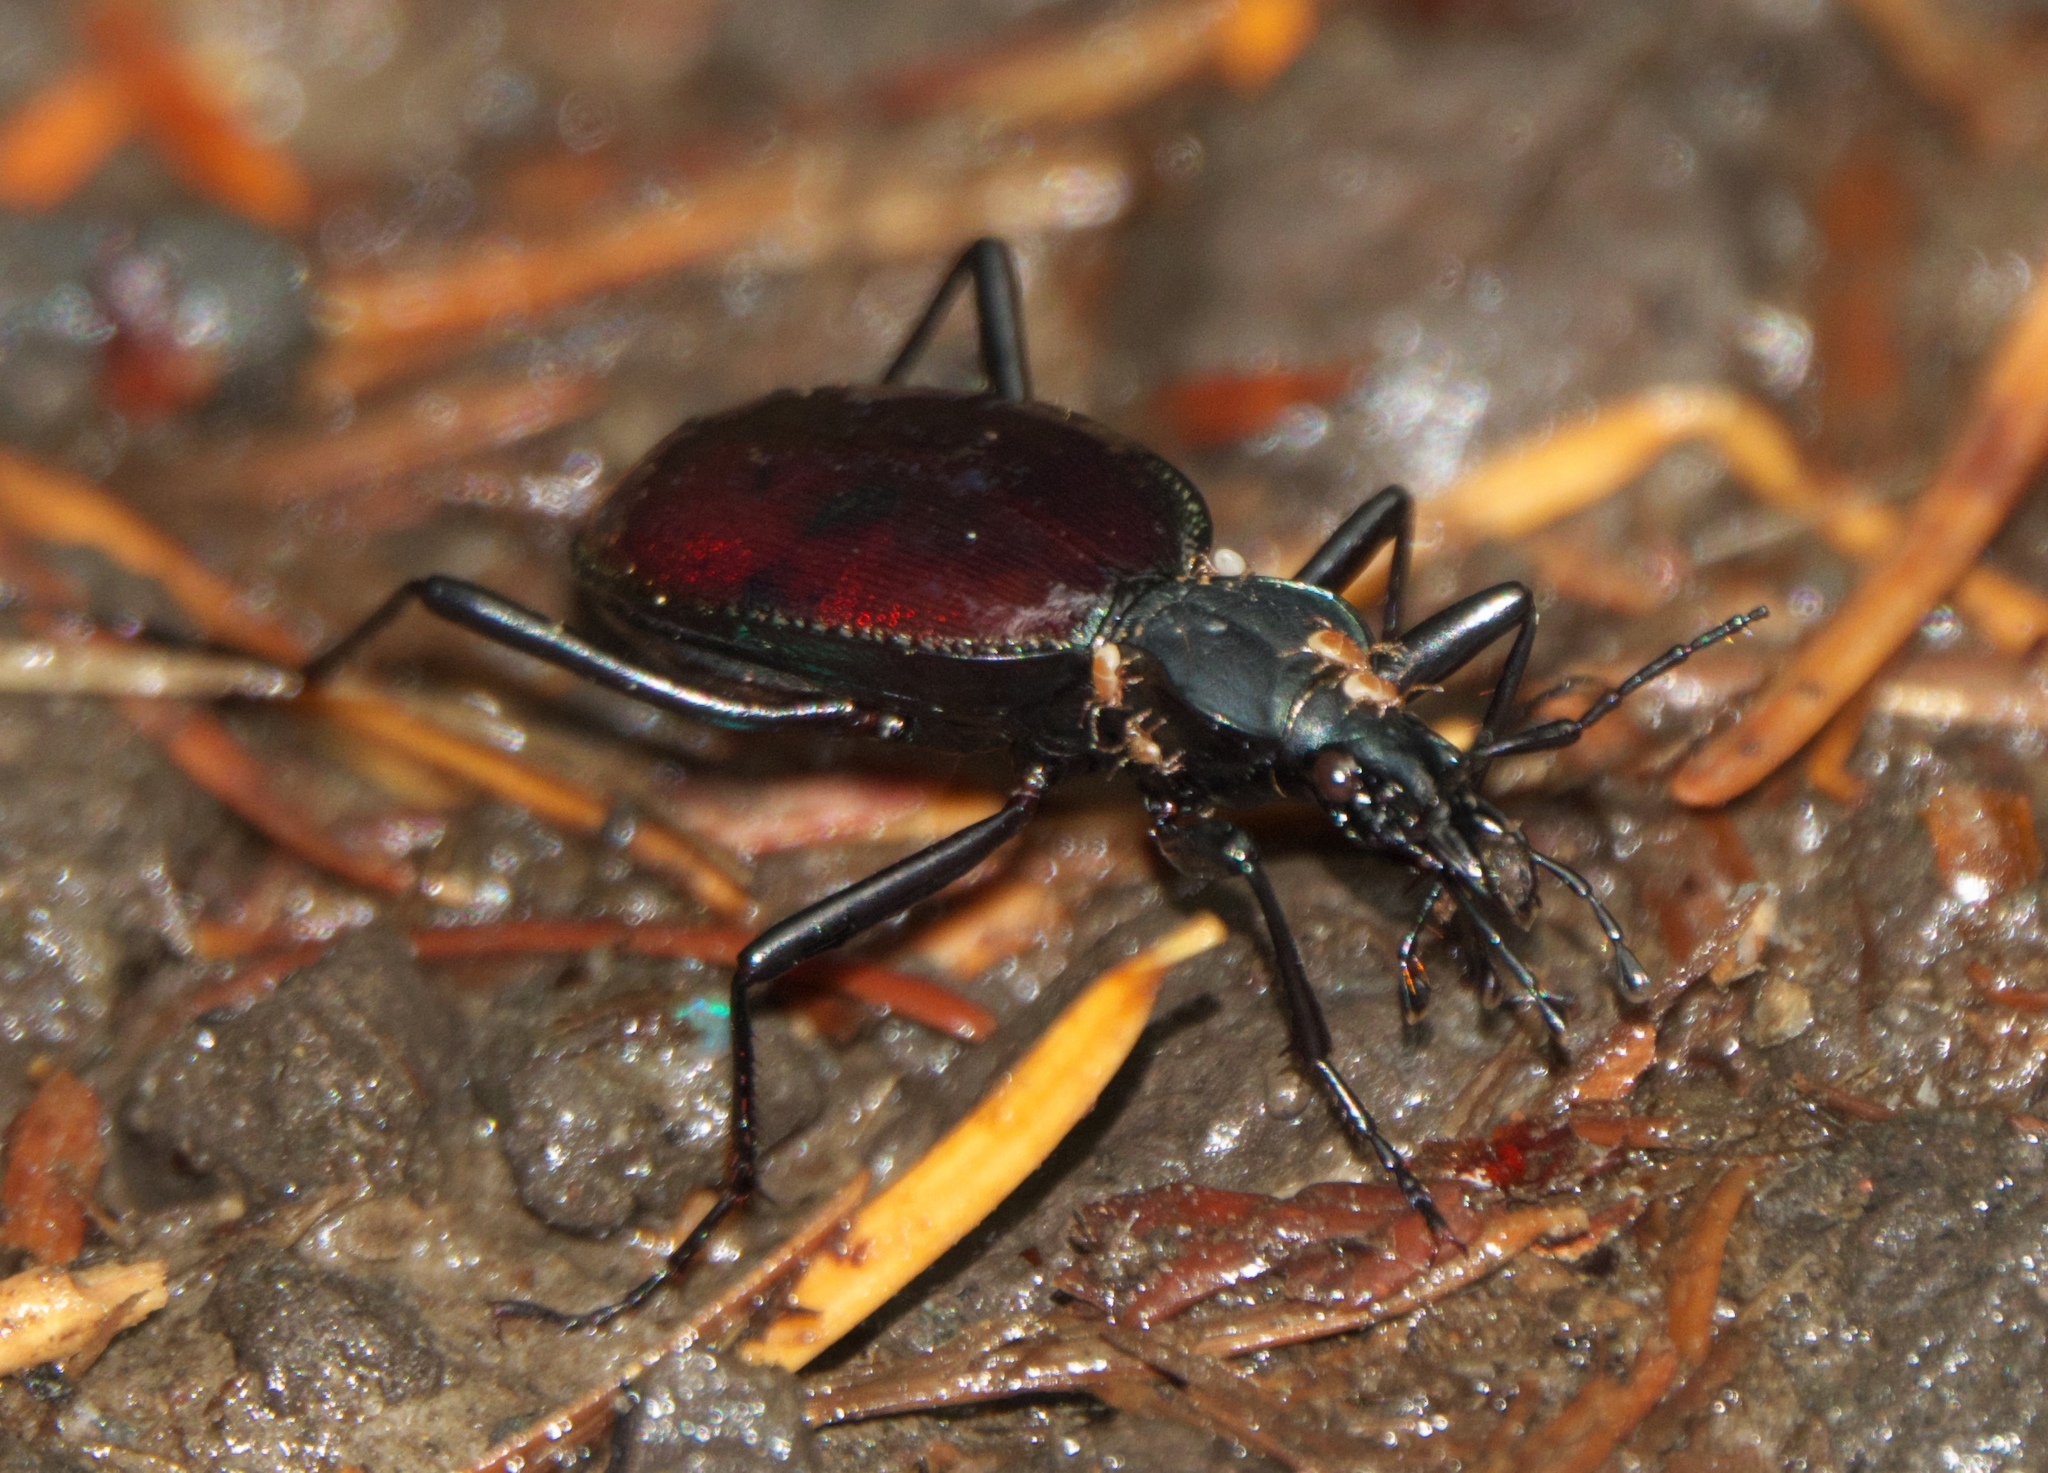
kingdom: Animalia
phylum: Arthropoda
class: Insecta
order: Coleoptera
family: Carabidae
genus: Scaphinotus
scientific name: Scaphinotus angusticollis
